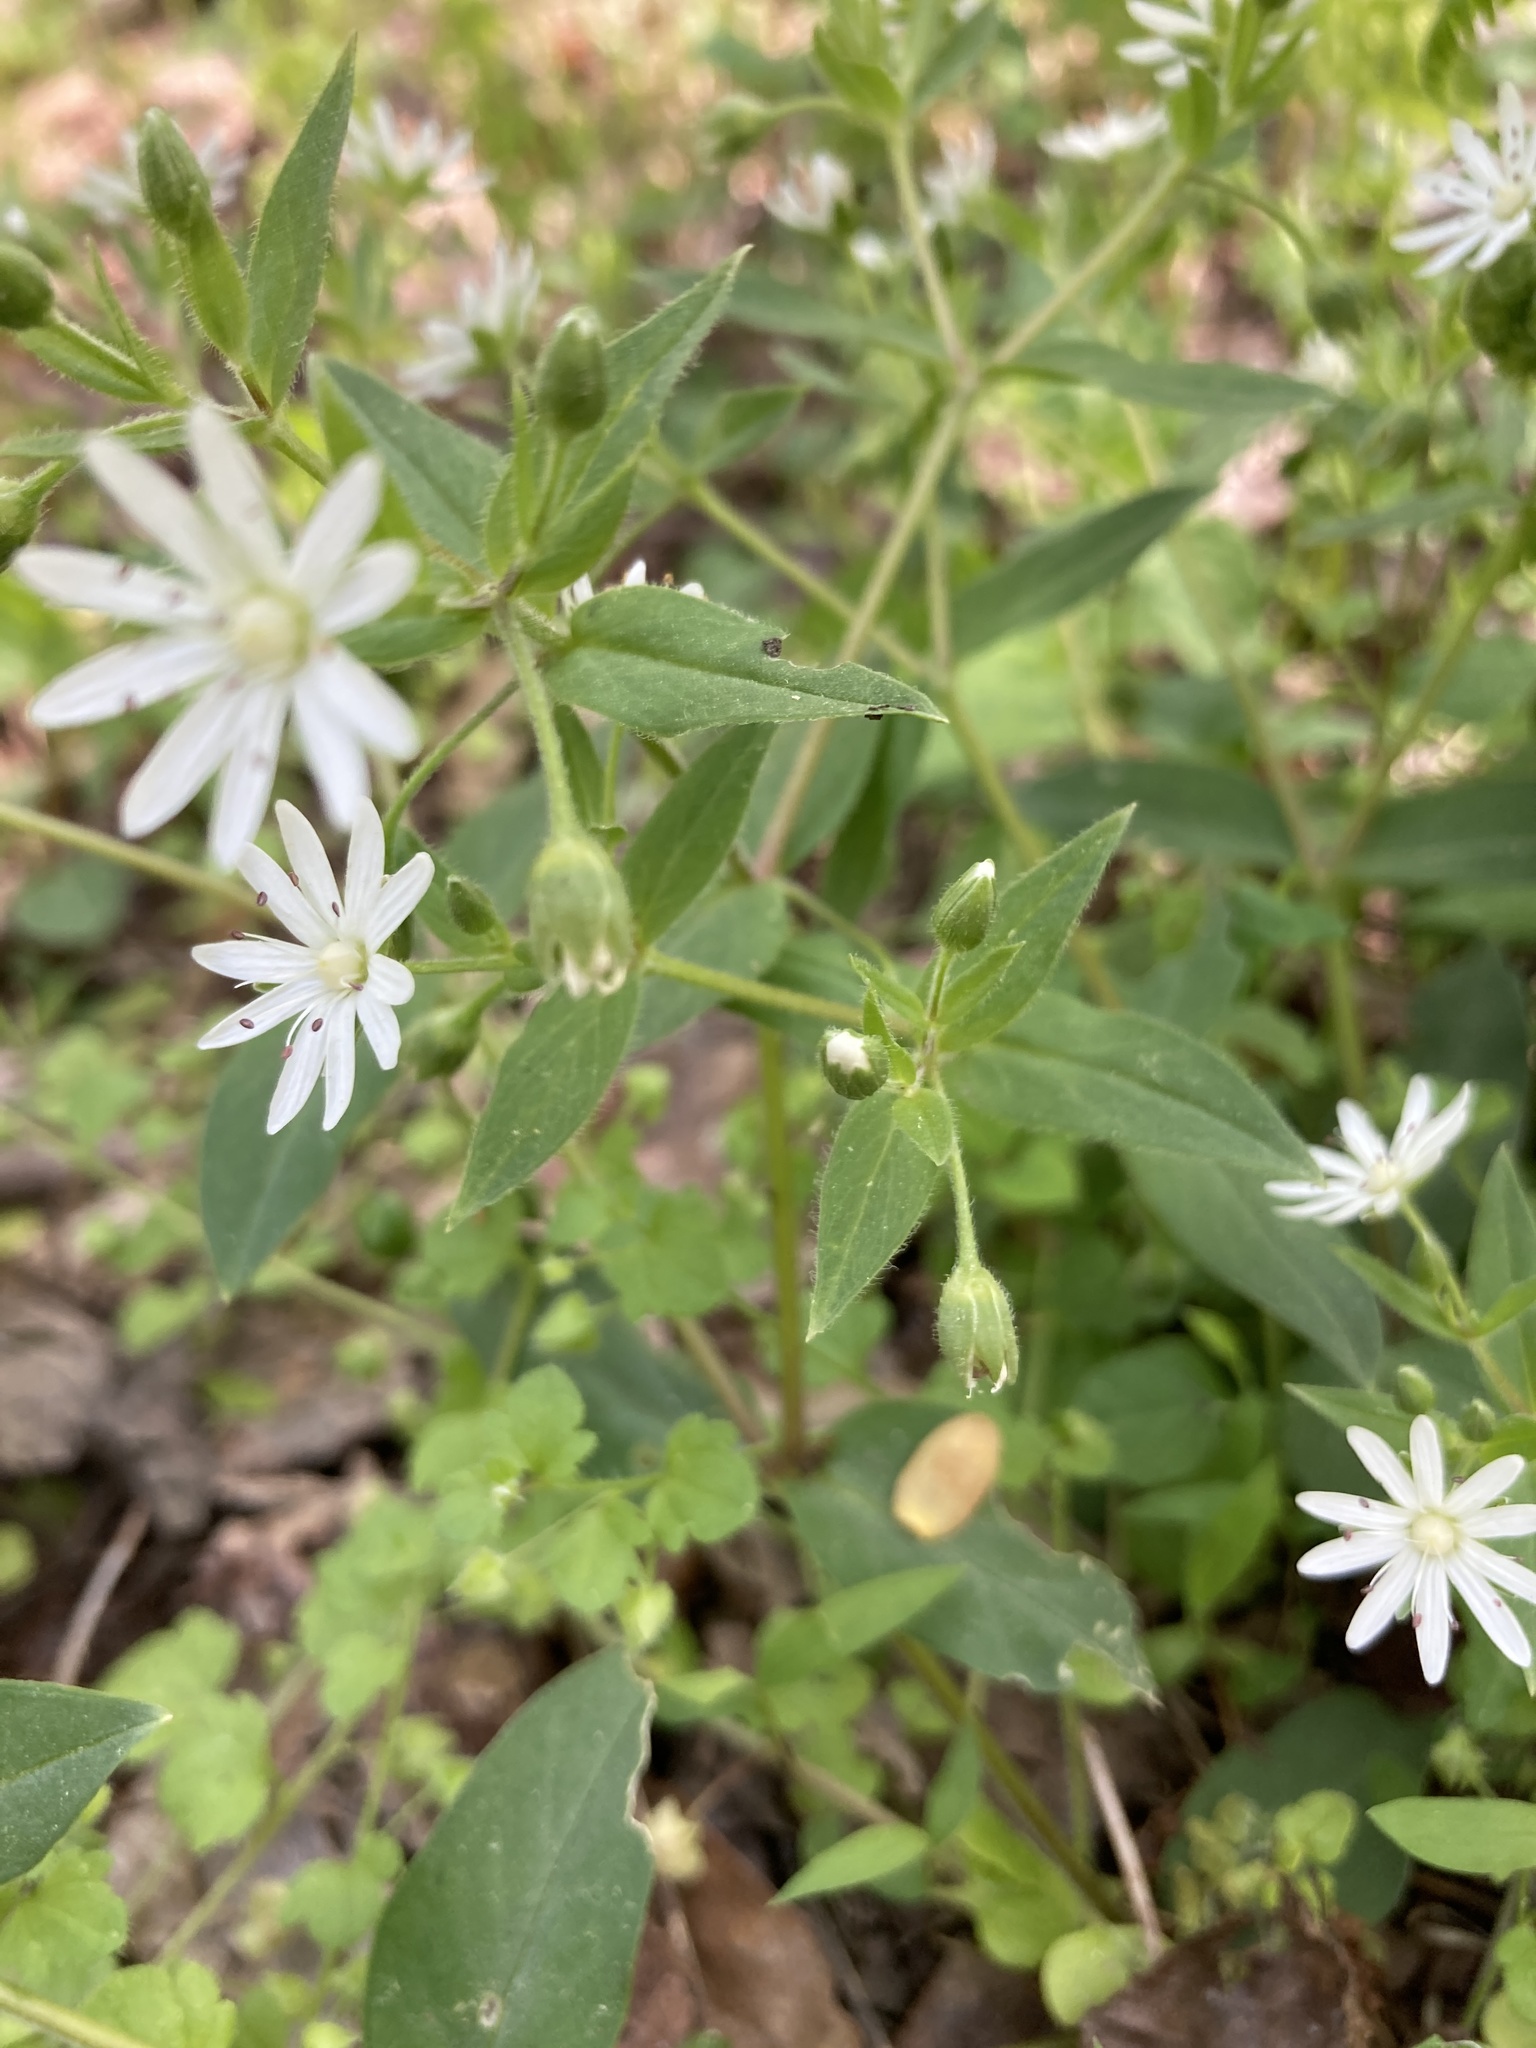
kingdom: Plantae
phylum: Tracheophyta
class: Magnoliopsida
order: Caryophyllales
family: Caryophyllaceae
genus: Stellaria
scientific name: Stellaria pubera
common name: Star chickweed
